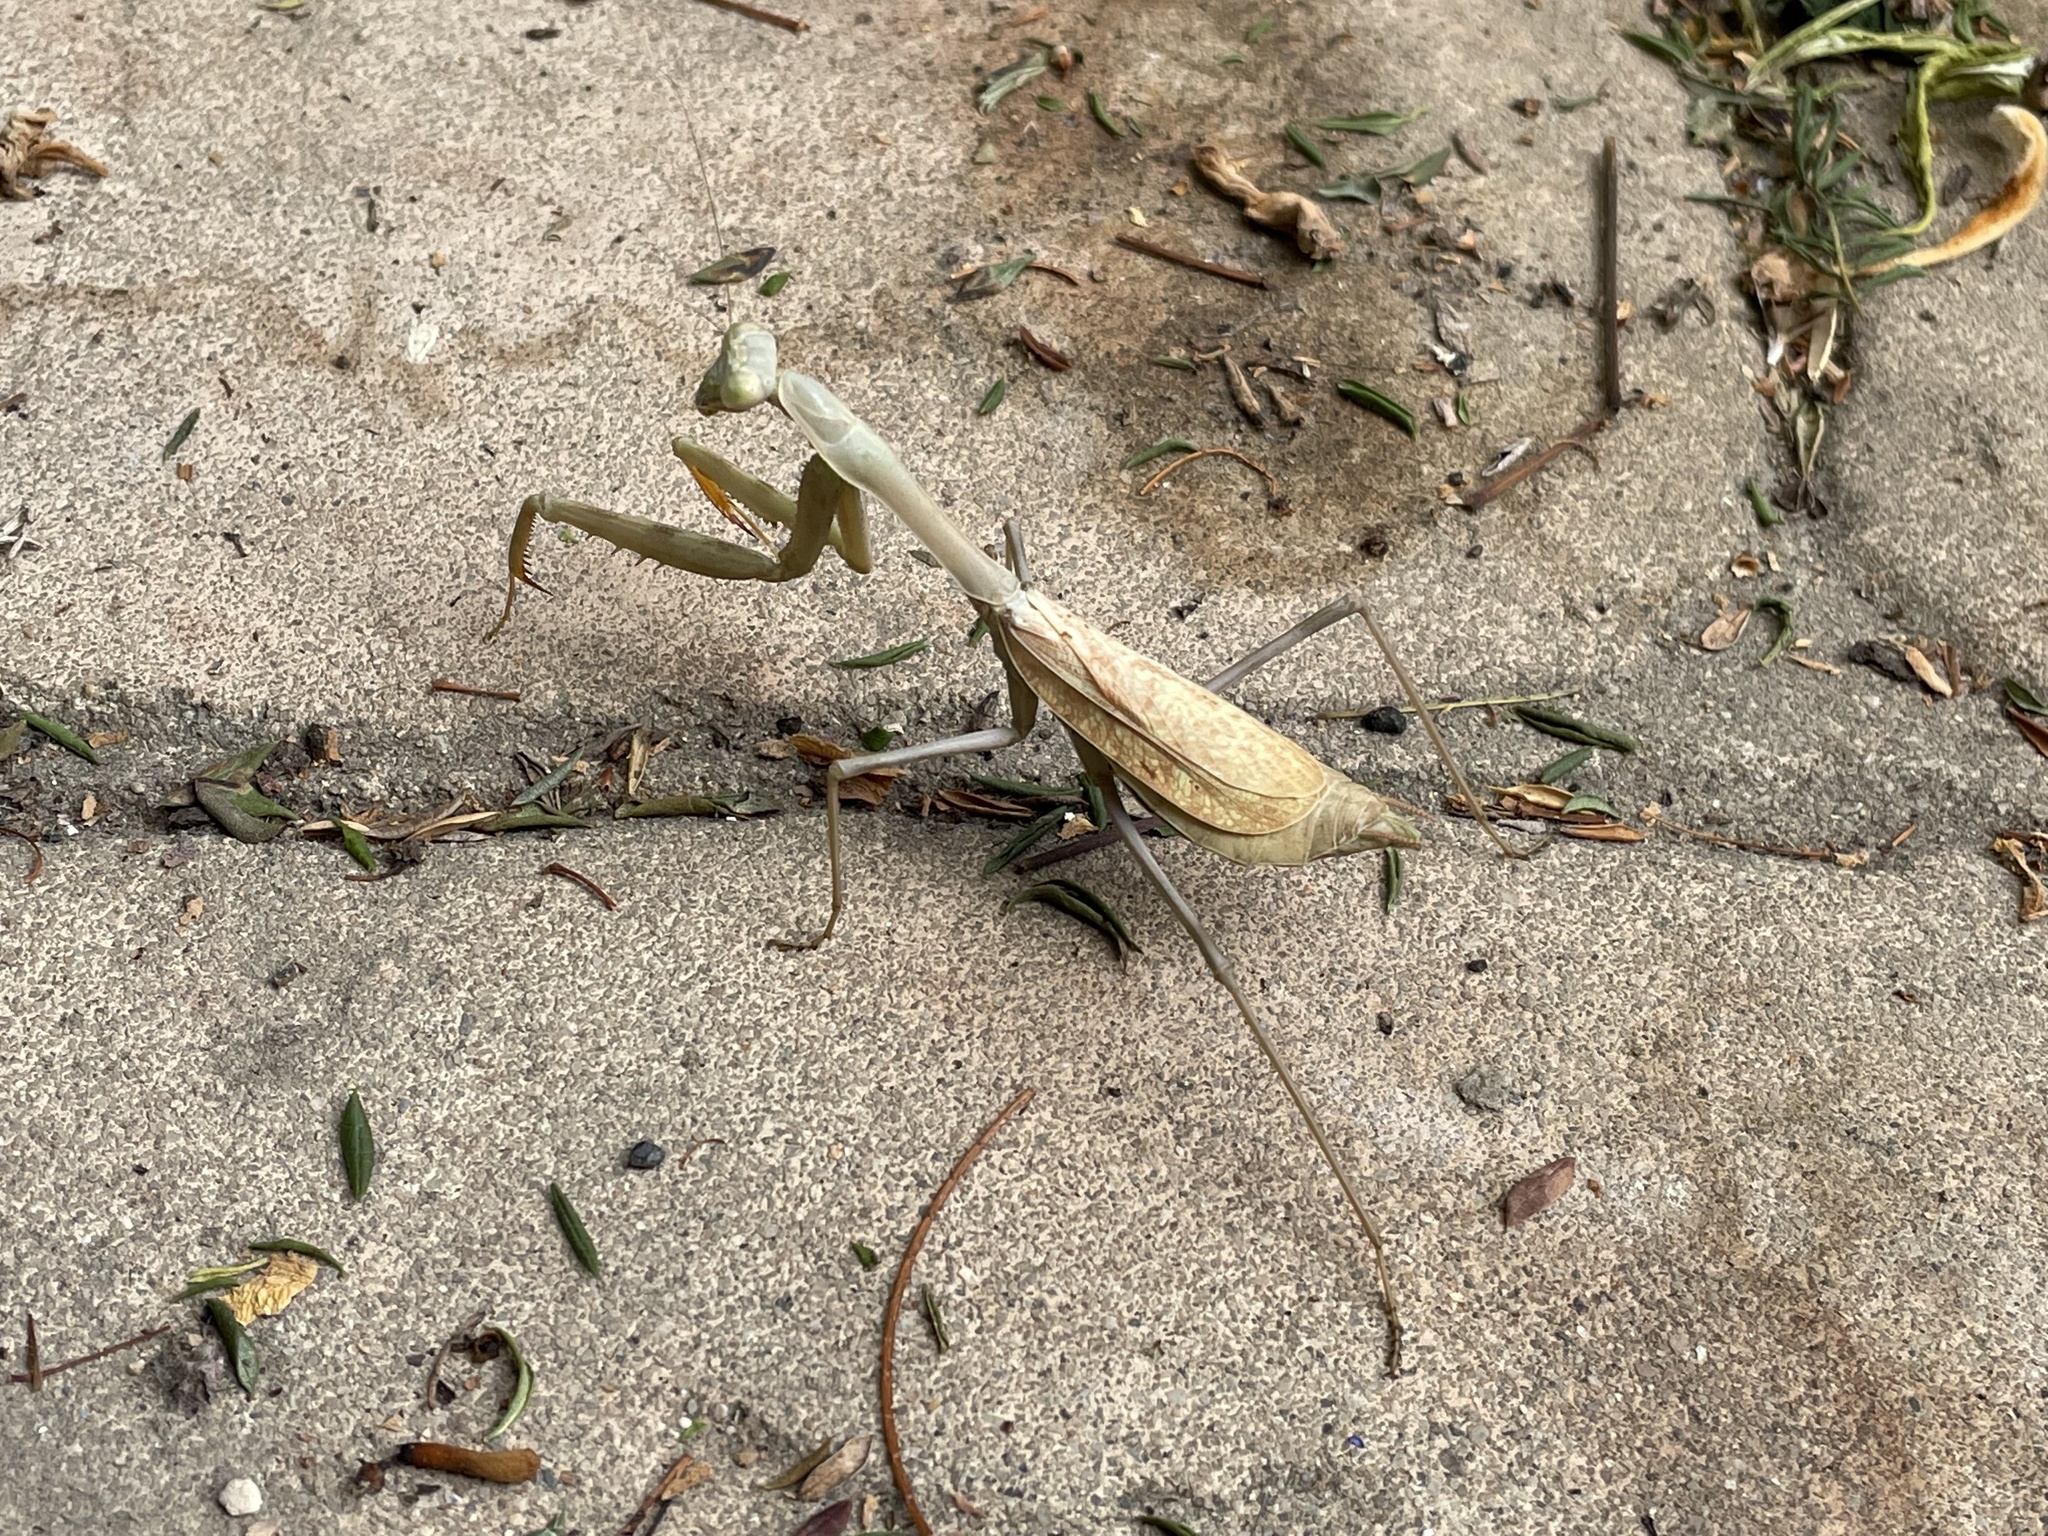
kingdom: Animalia
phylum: Arthropoda
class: Insecta
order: Mantodea
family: Mantidae
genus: Stagmomantis
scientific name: Stagmomantis limbata
